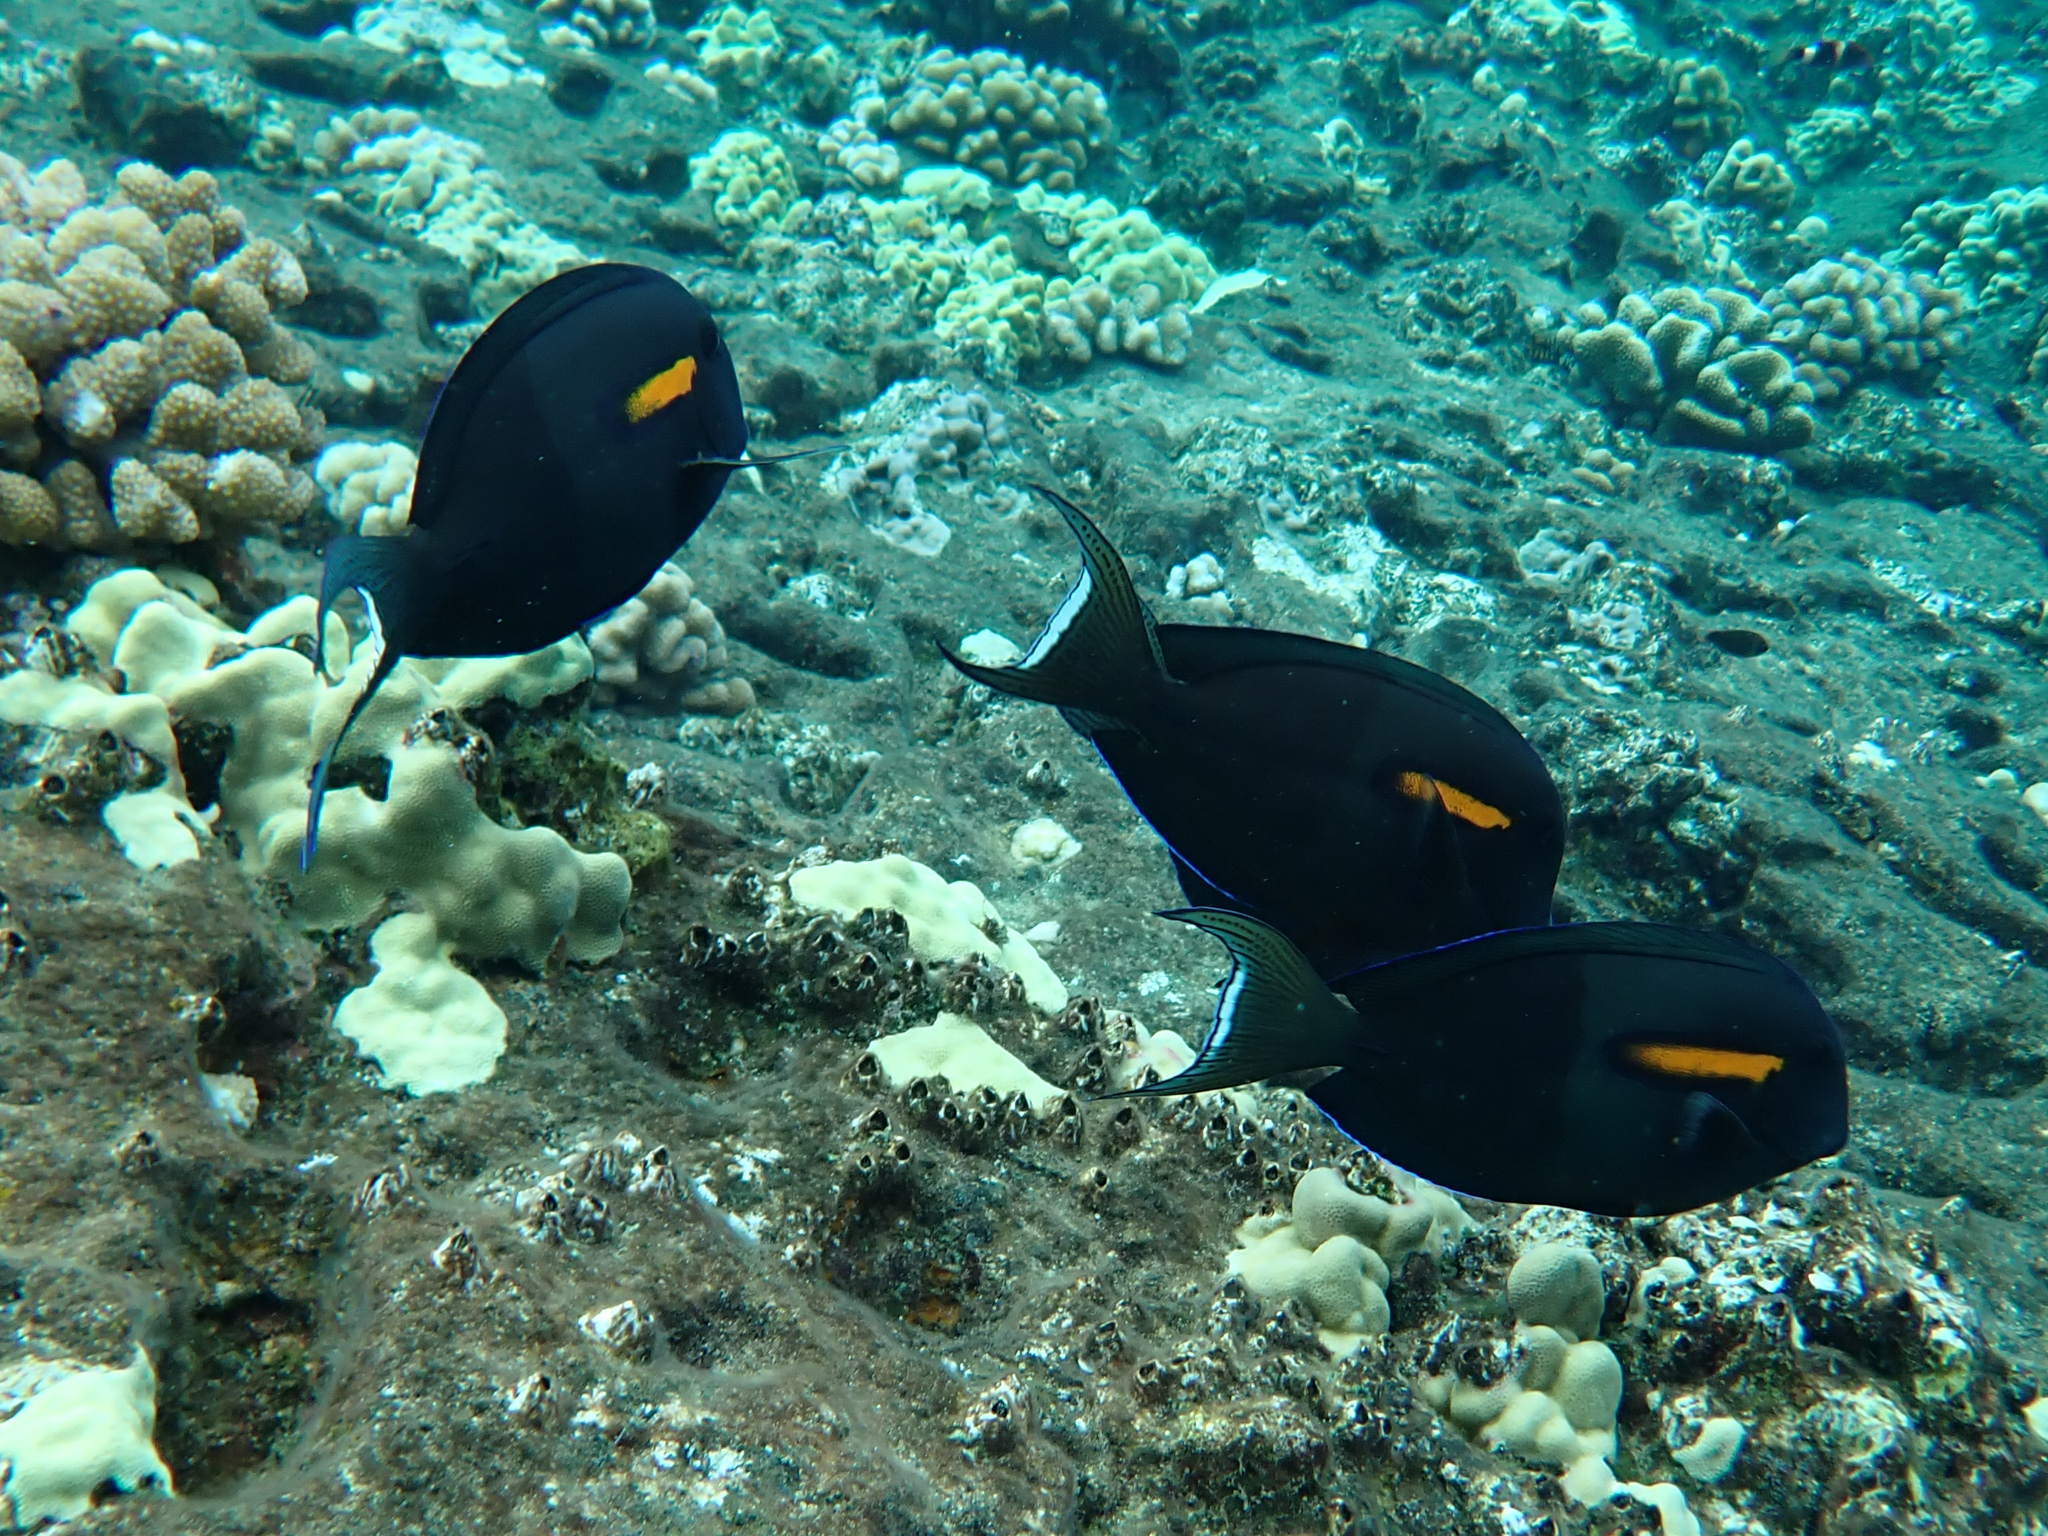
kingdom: Animalia
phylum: Chordata
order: Perciformes
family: Acanthuridae
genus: Acanthurus
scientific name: Acanthurus olivaceus
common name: Gendarme fish
